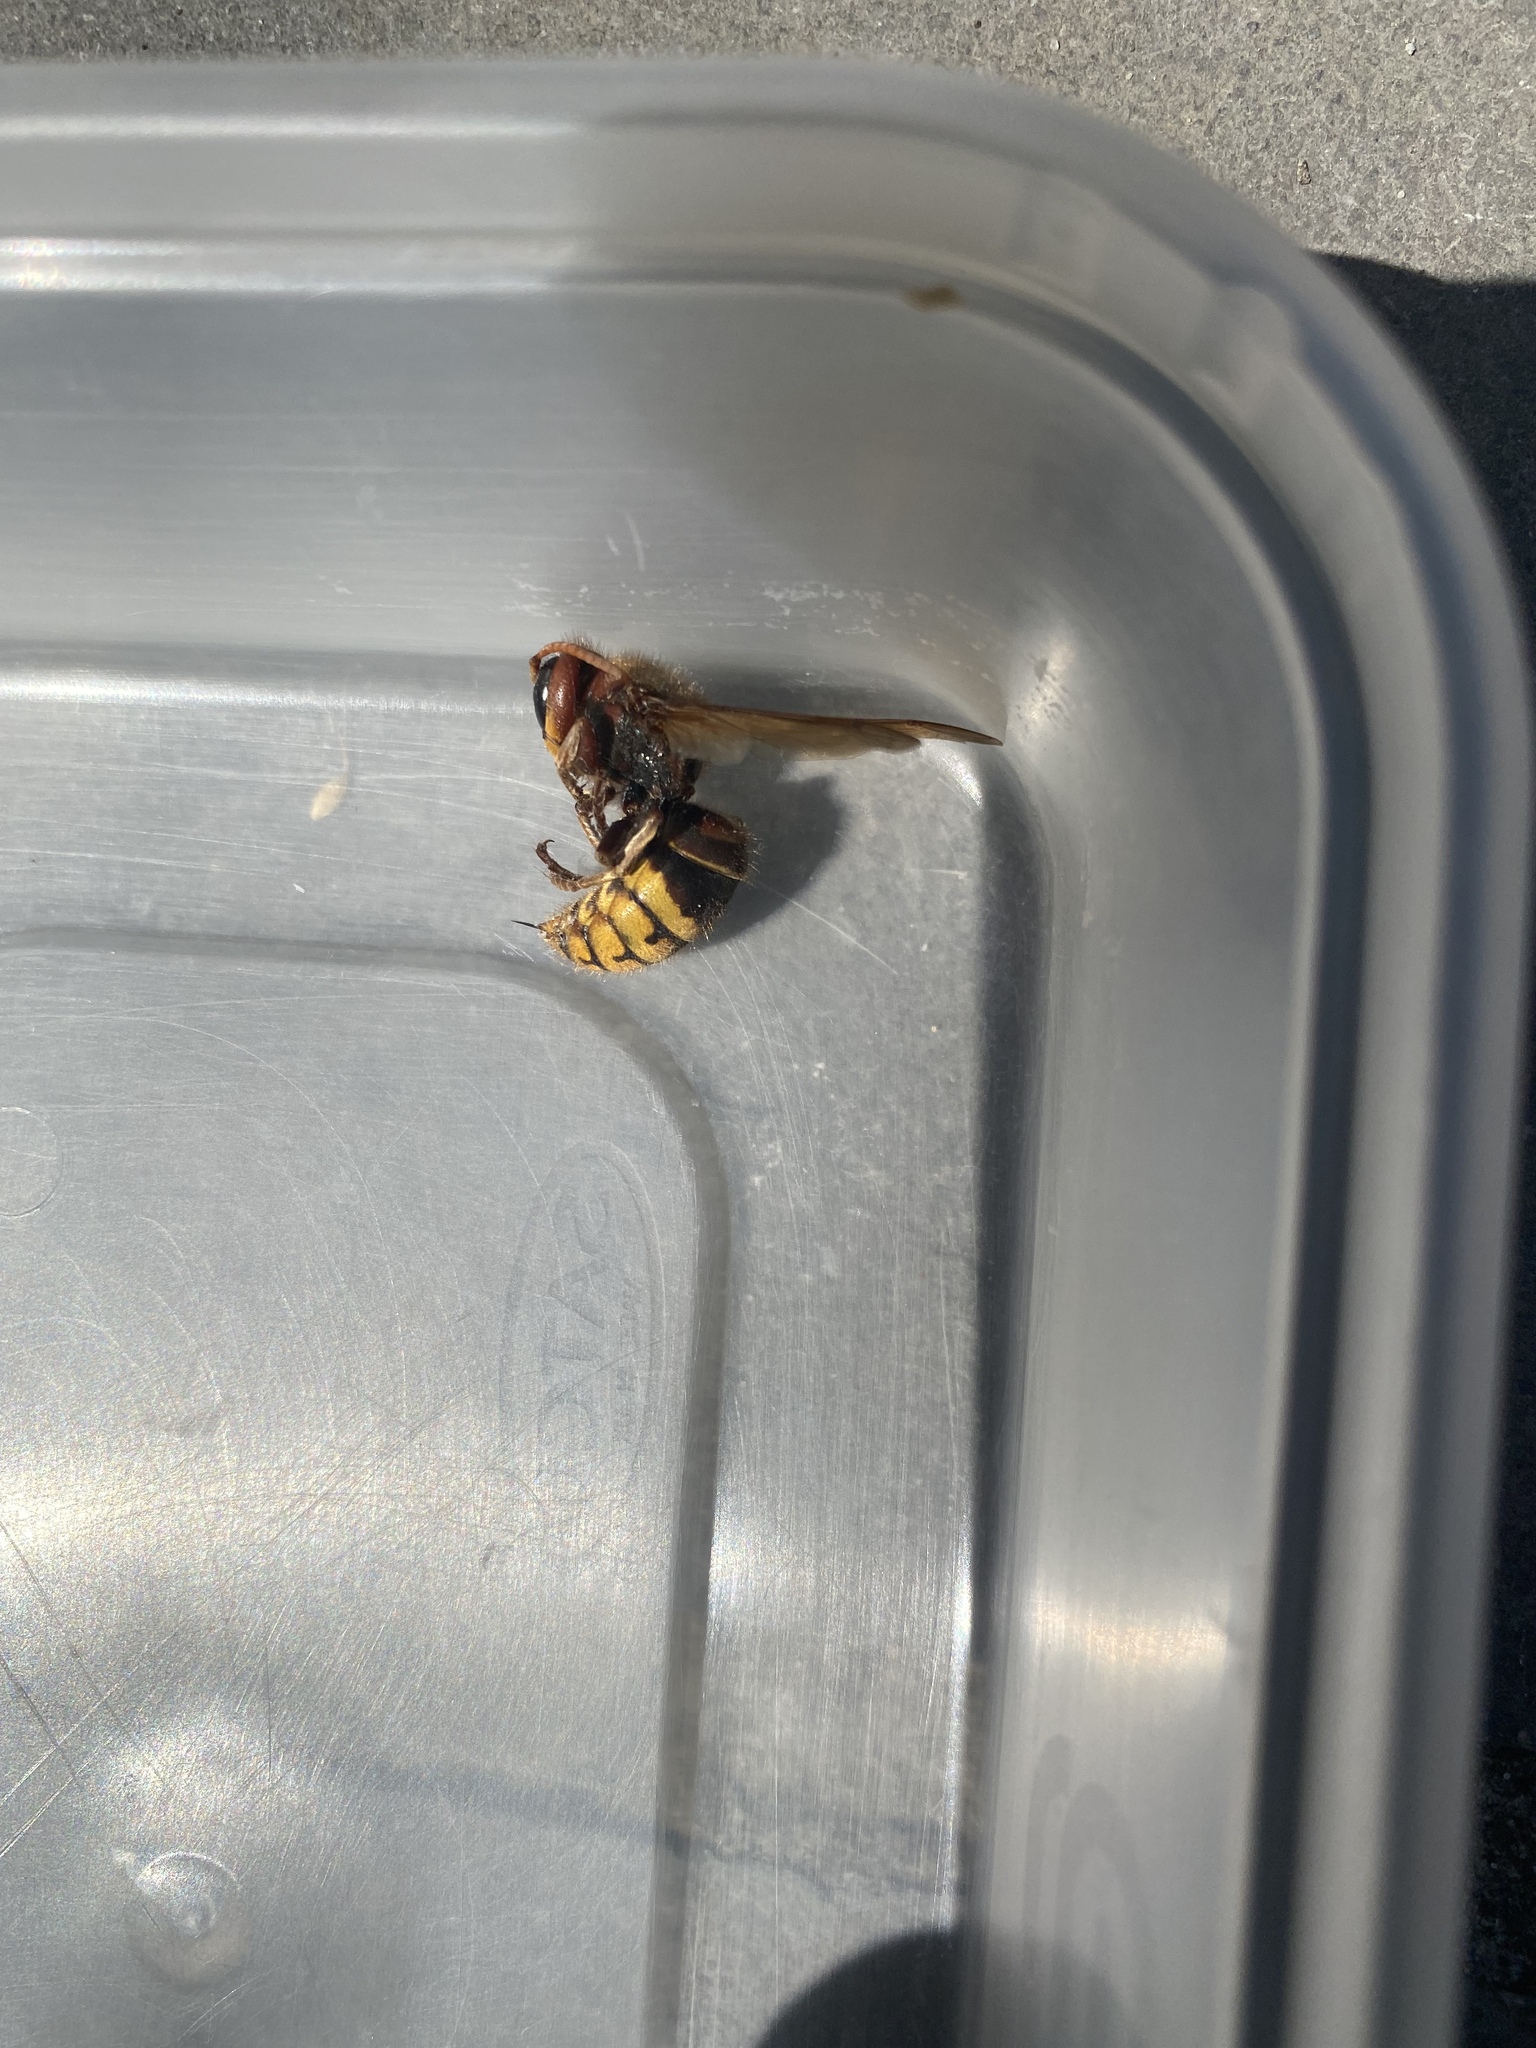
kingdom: Animalia
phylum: Arthropoda
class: Insecta
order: Hymenoptera
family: Vespidae
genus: Vespa
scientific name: Vespa crabro
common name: Hornet
